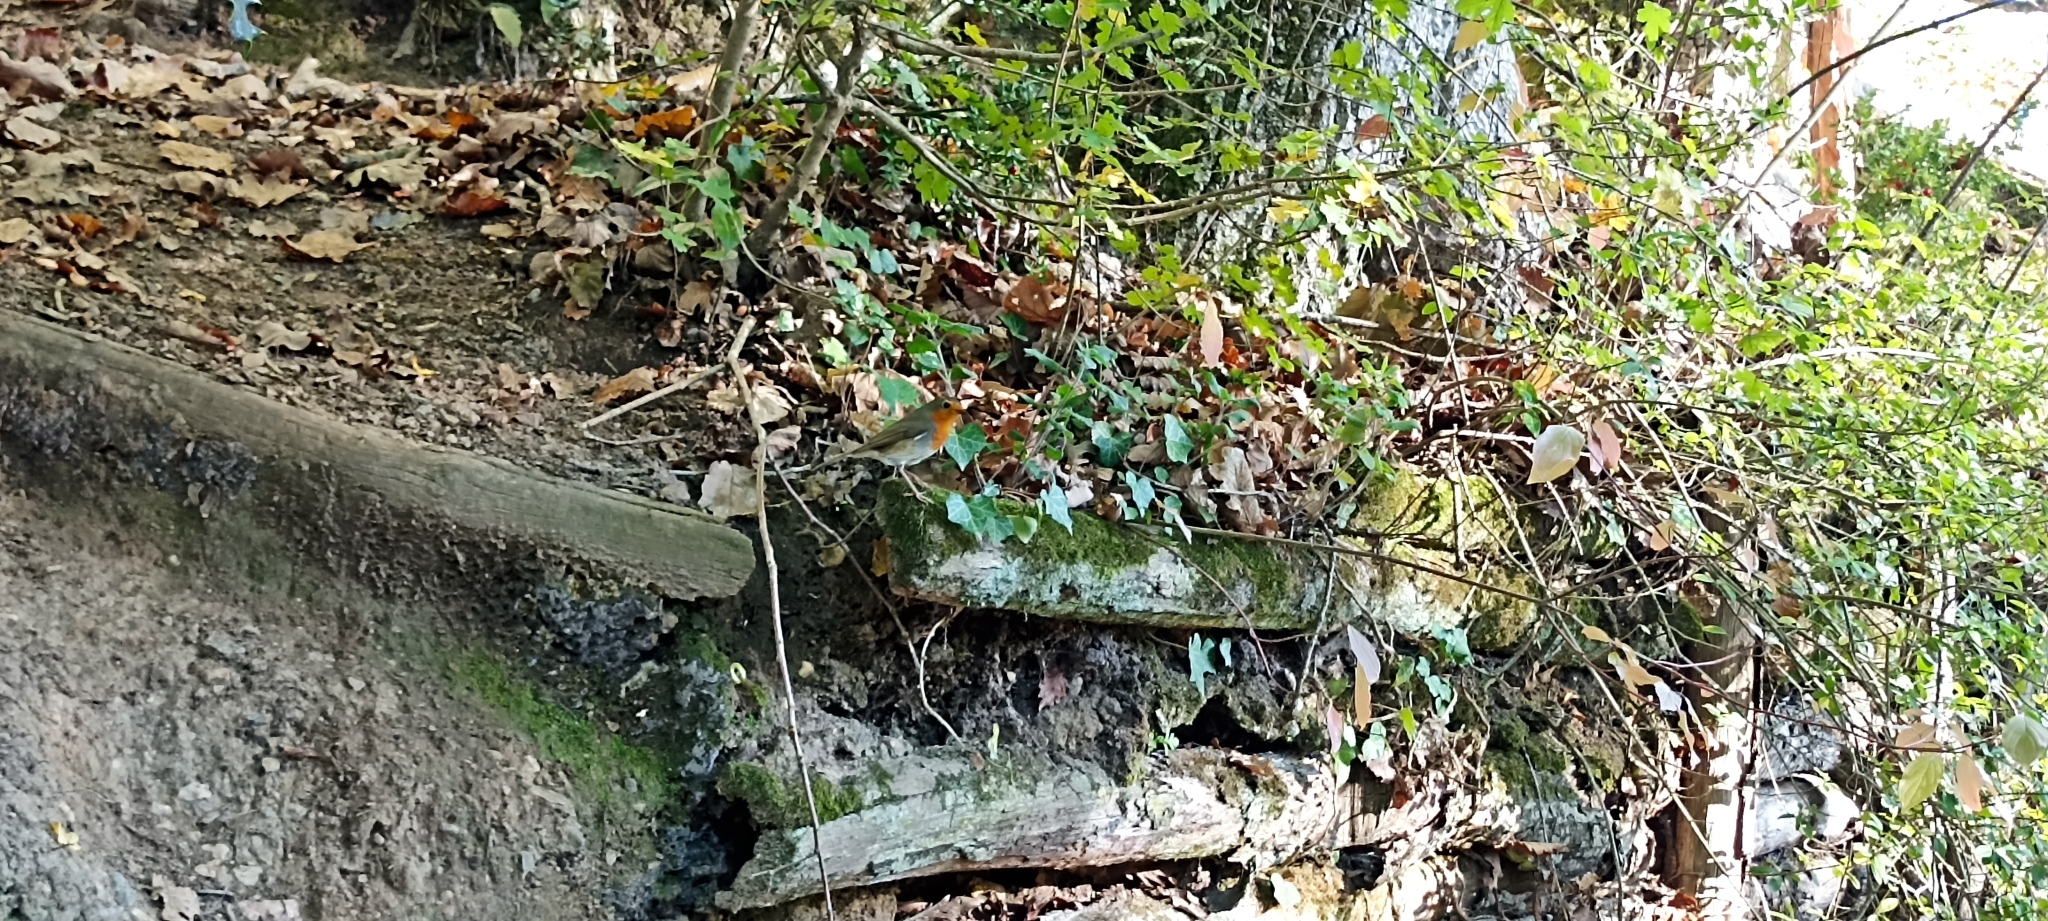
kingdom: Animalia
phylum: Chordata
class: Aves
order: Passeriformes
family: Muscicapidae
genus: Erithacus
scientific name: Erithacus rubecula
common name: European robin
